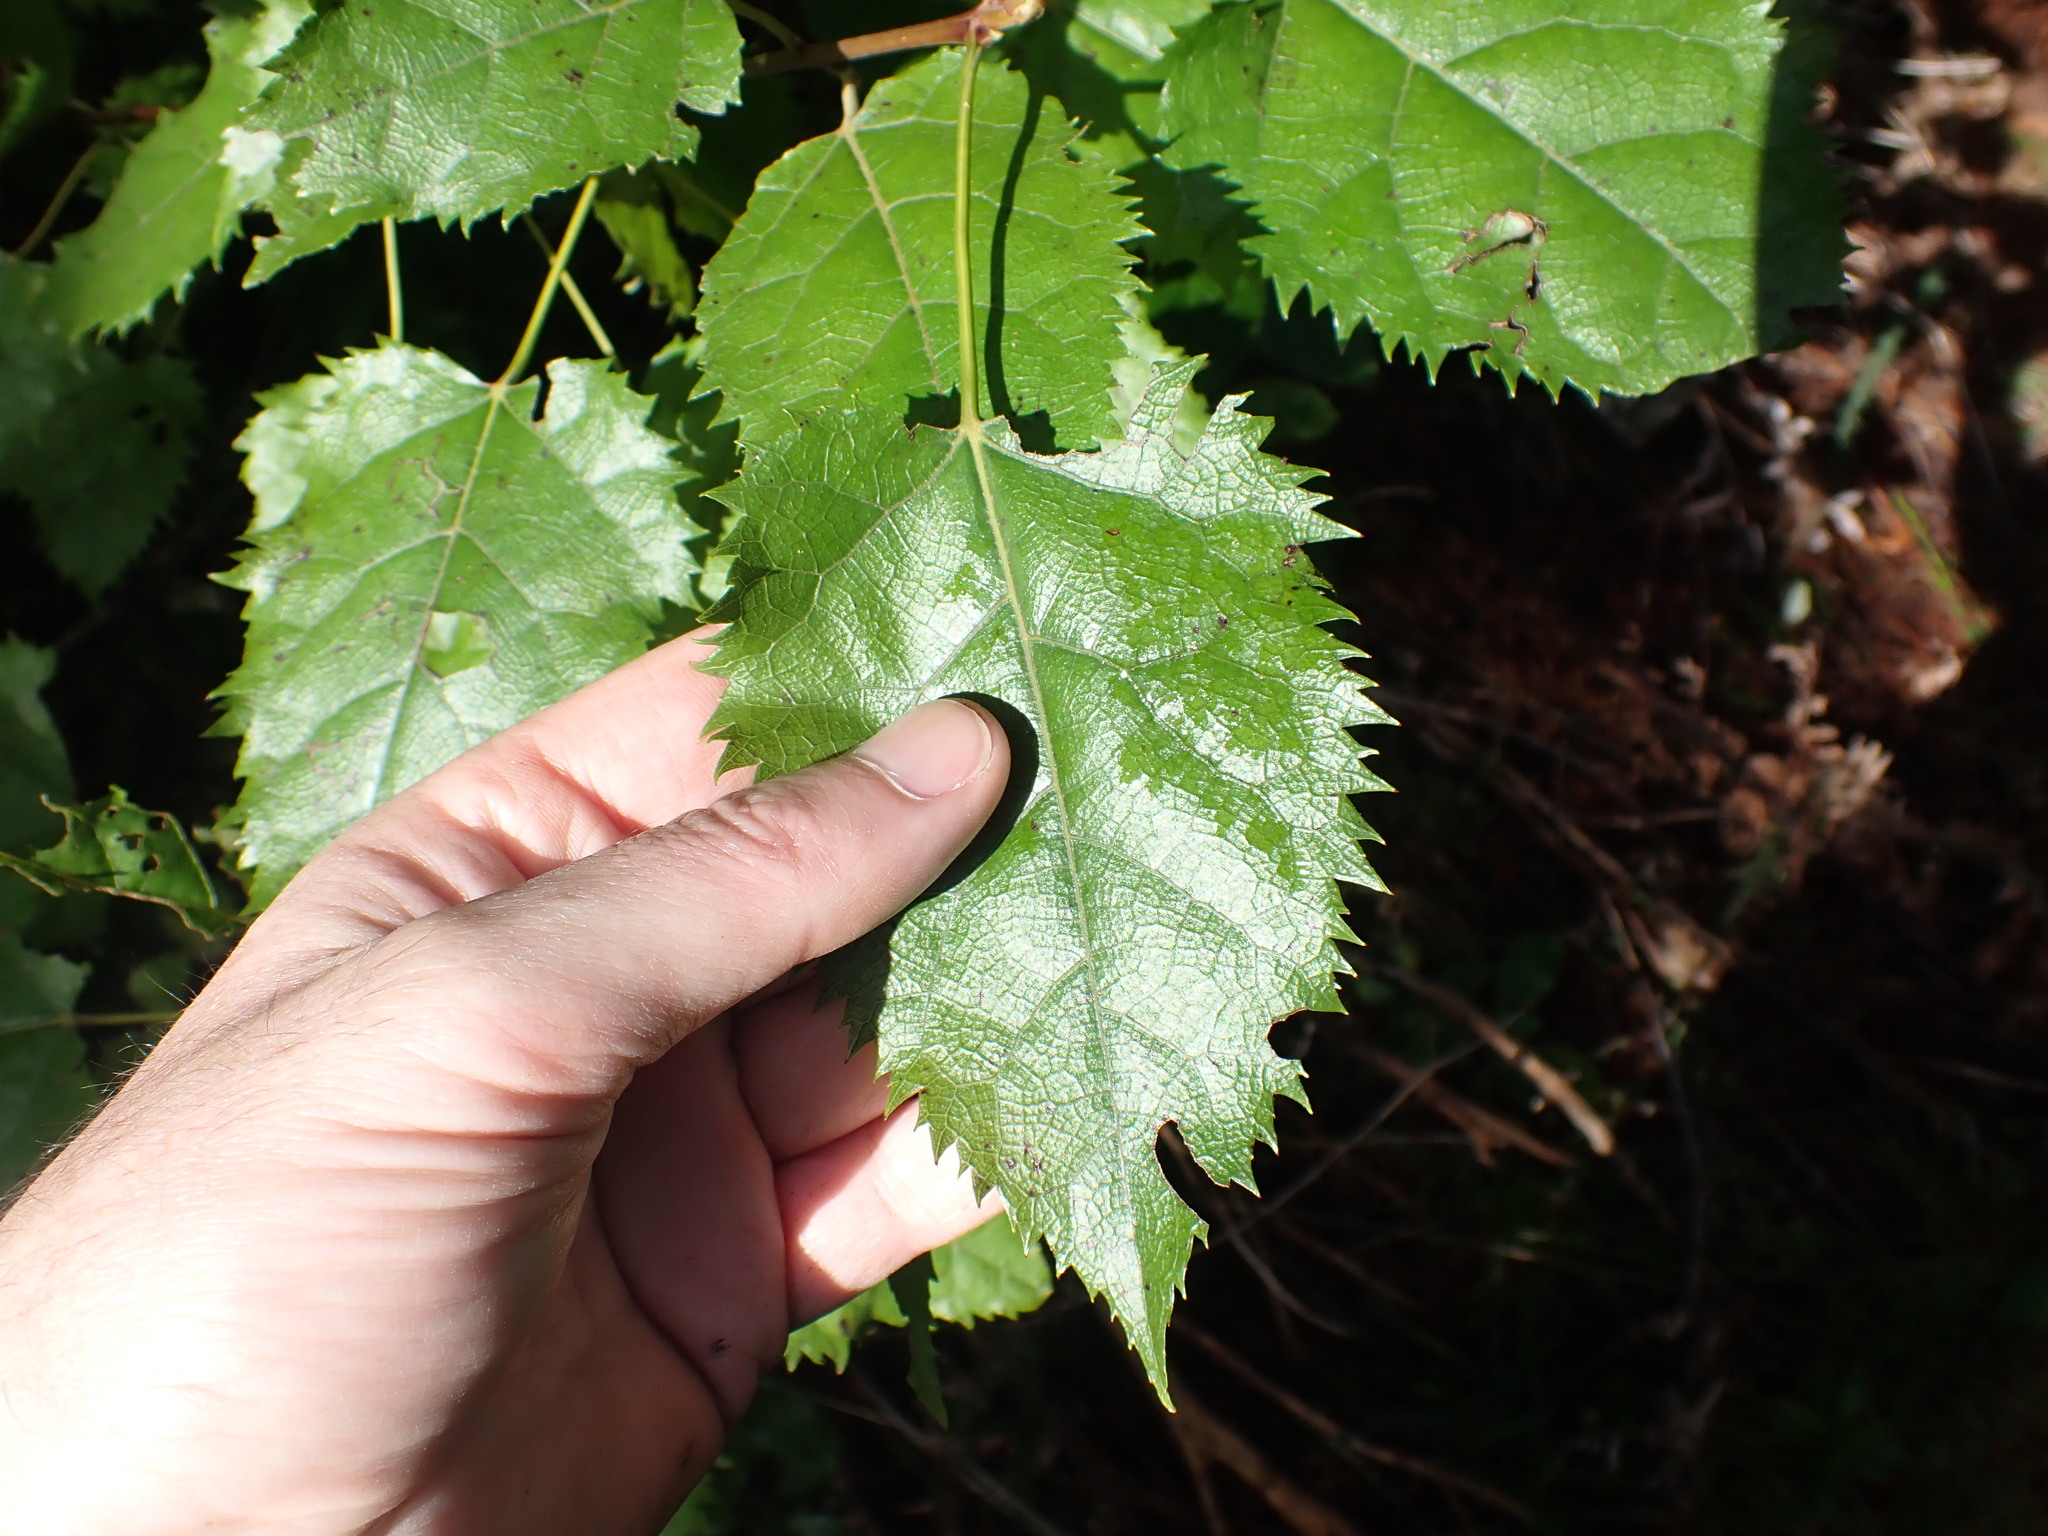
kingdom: Plantae
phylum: Tracheophyta
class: Magnoliopsida
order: Oxalidales
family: Elaeocarpaceae
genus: Aristotelia
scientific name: Aristotelia serrata
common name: New zealand wineberry
